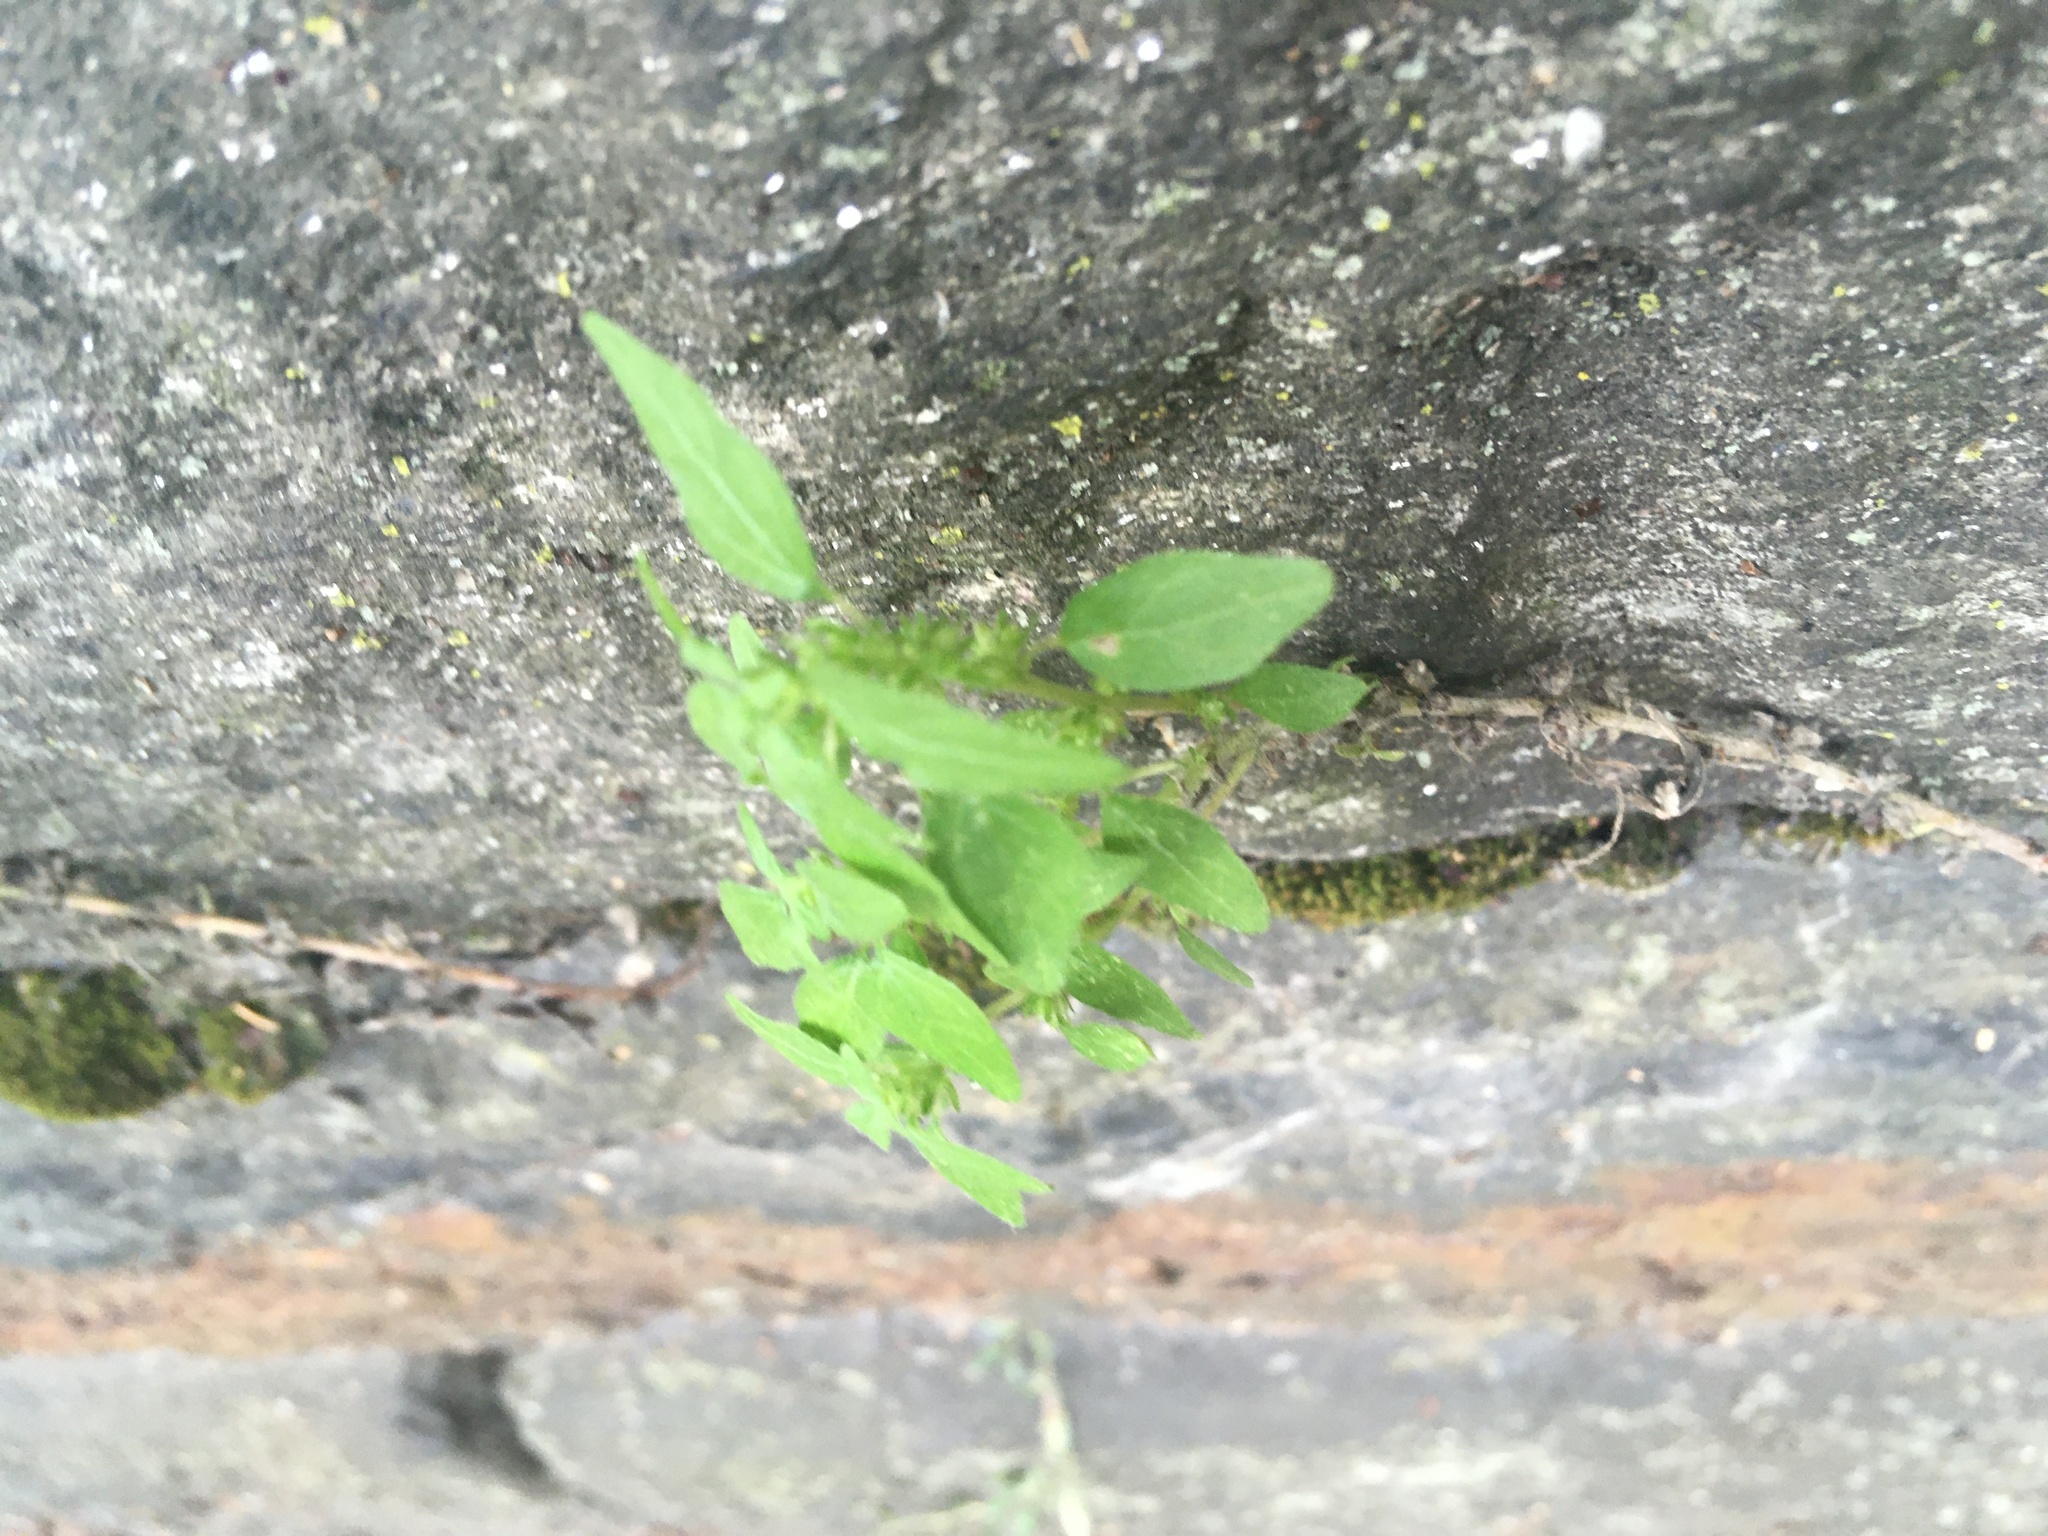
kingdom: Plantae
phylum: Tracheophyta
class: Magnoliopsida
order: Rosales
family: Urticaceae
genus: Parietaria
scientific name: Parietaria pensylvanica
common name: Pennsylvania pellitory
